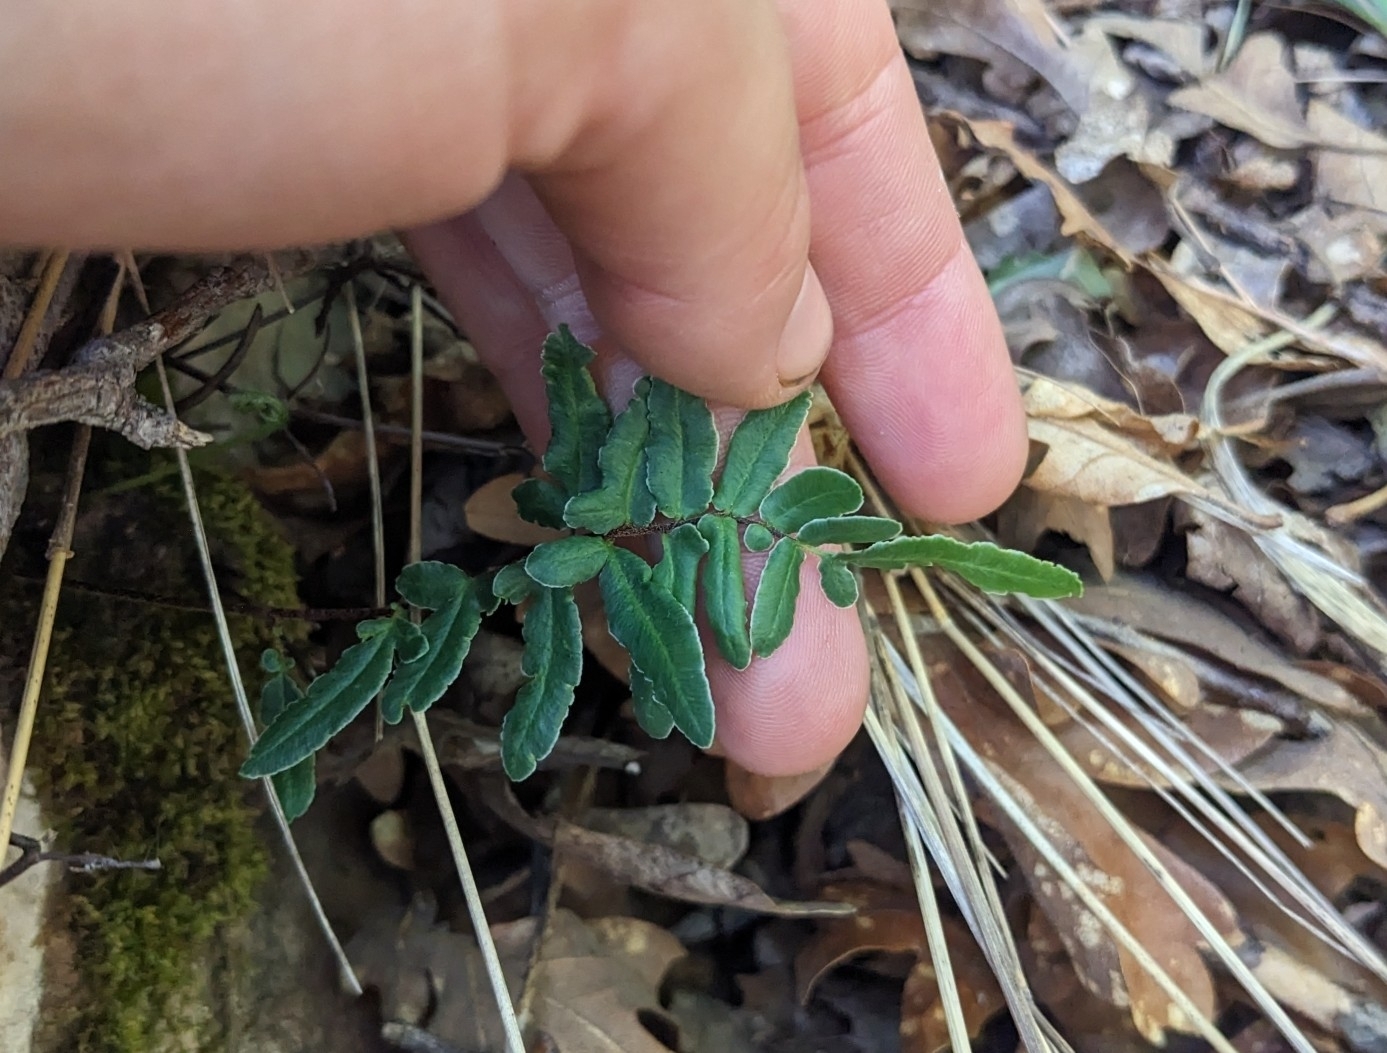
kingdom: Plantae
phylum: Tracheophyta
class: Polypodiopsida
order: Polypodiales
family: Pteridaceae
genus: Pellaea
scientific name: Pellaea atropurpurea
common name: Hairy cliffbrake
